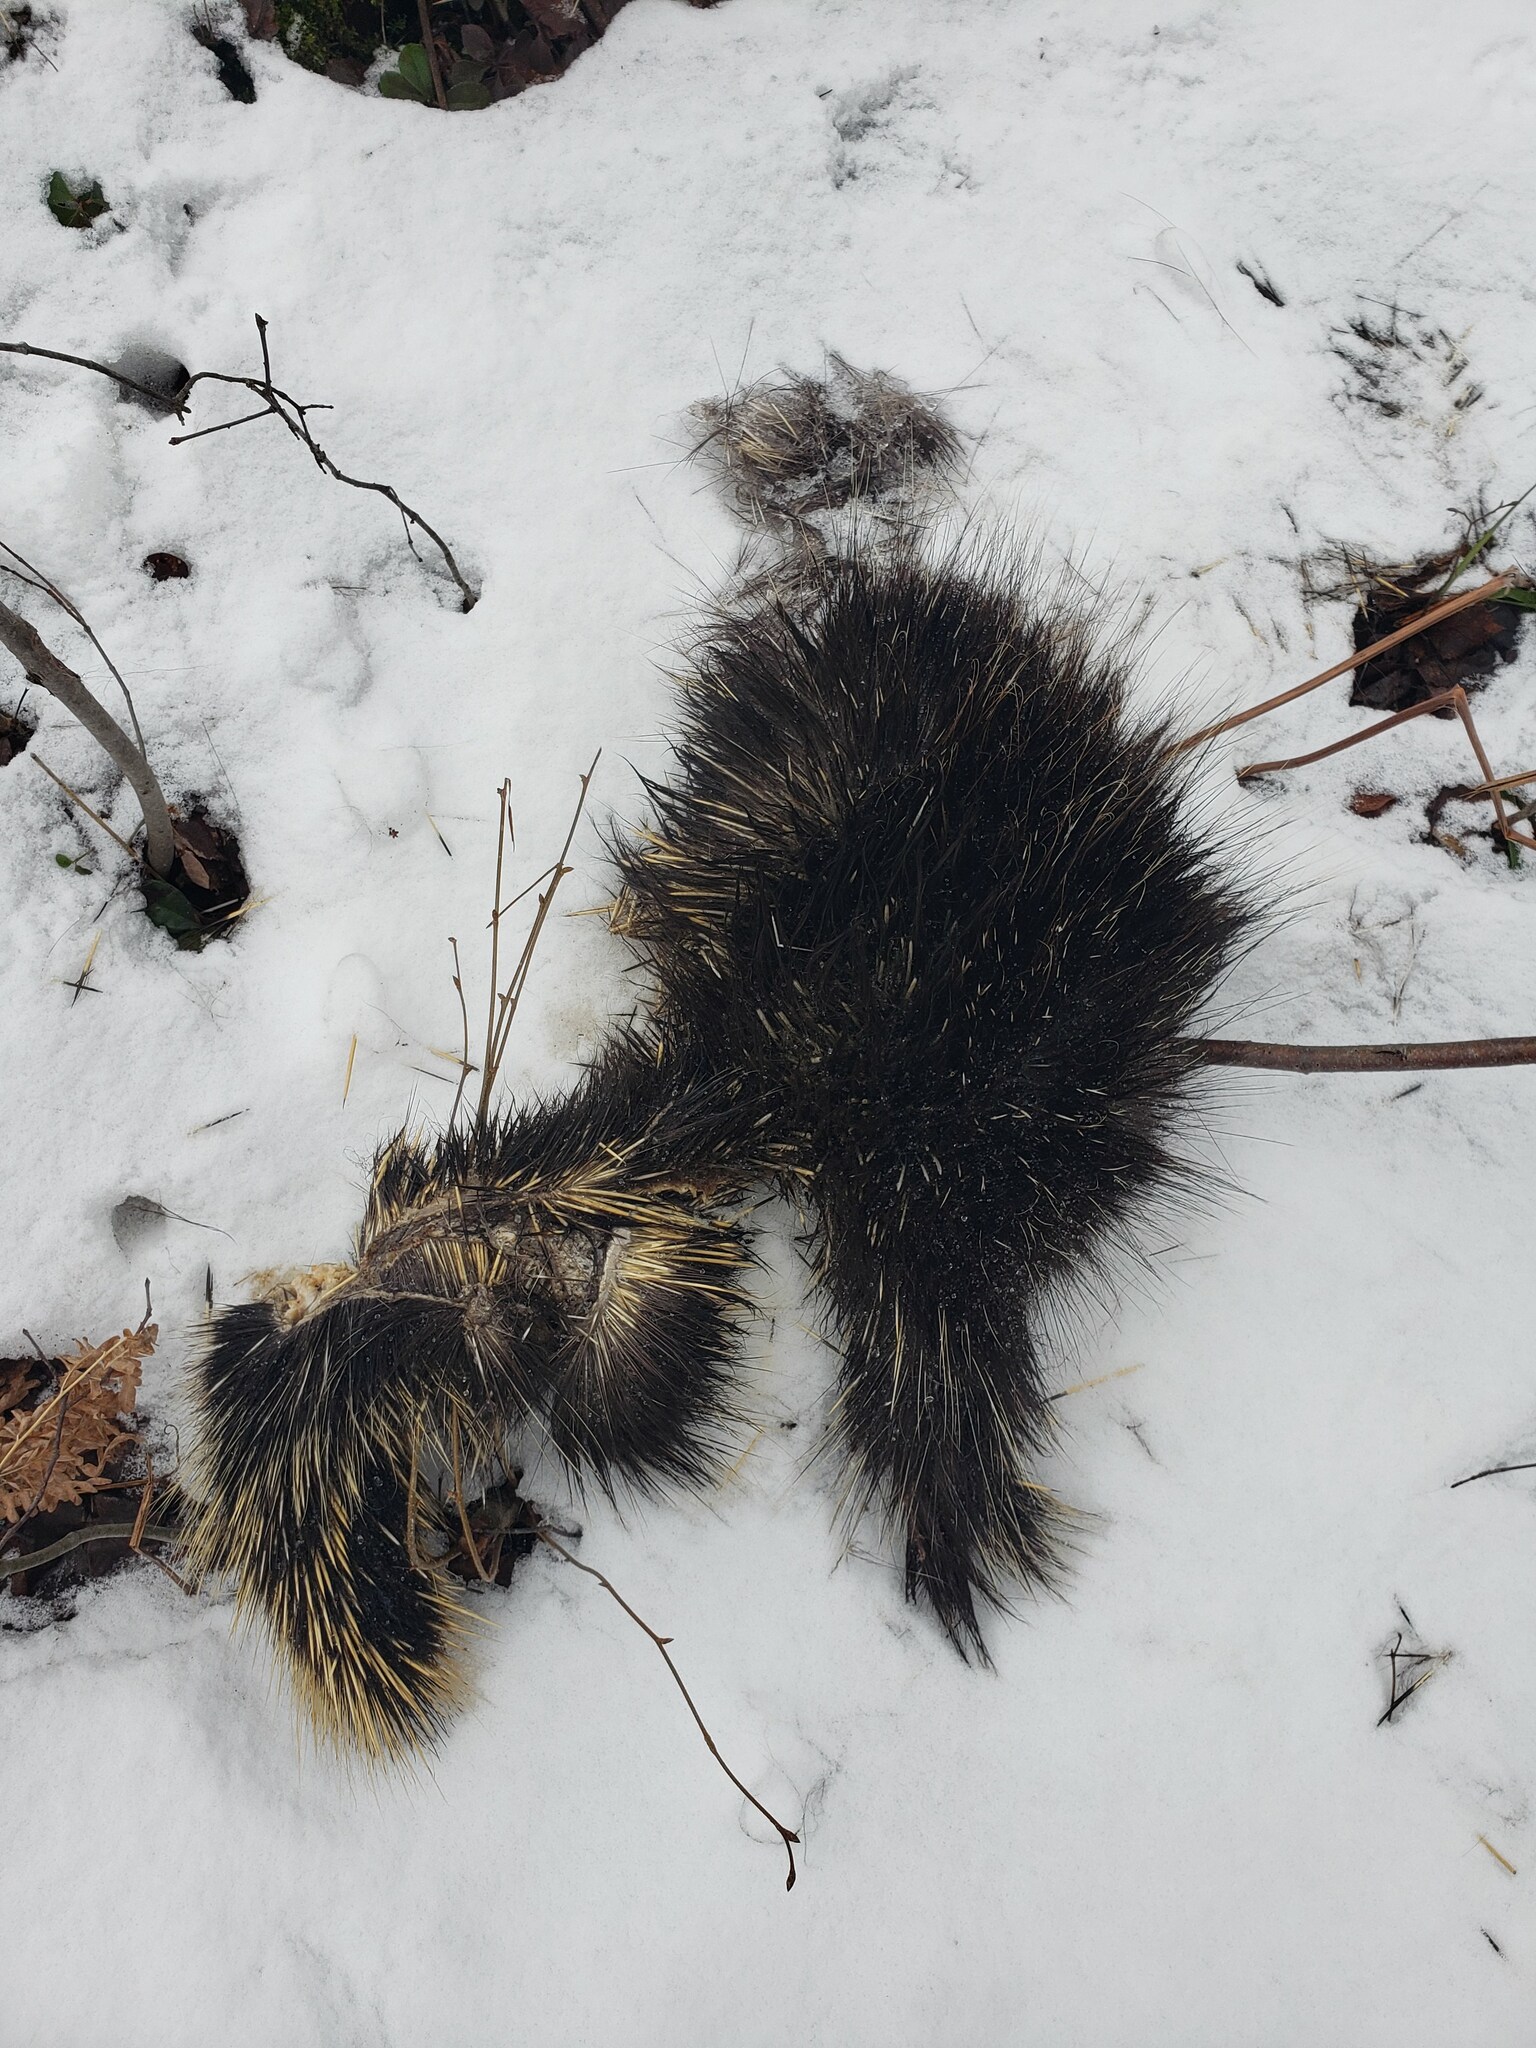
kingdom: Animalia
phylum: Chordata
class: Mammalia
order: Rodentia
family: Erethizontidae
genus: Erethizon
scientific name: Erethizon dorsatus
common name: North american porcupine
